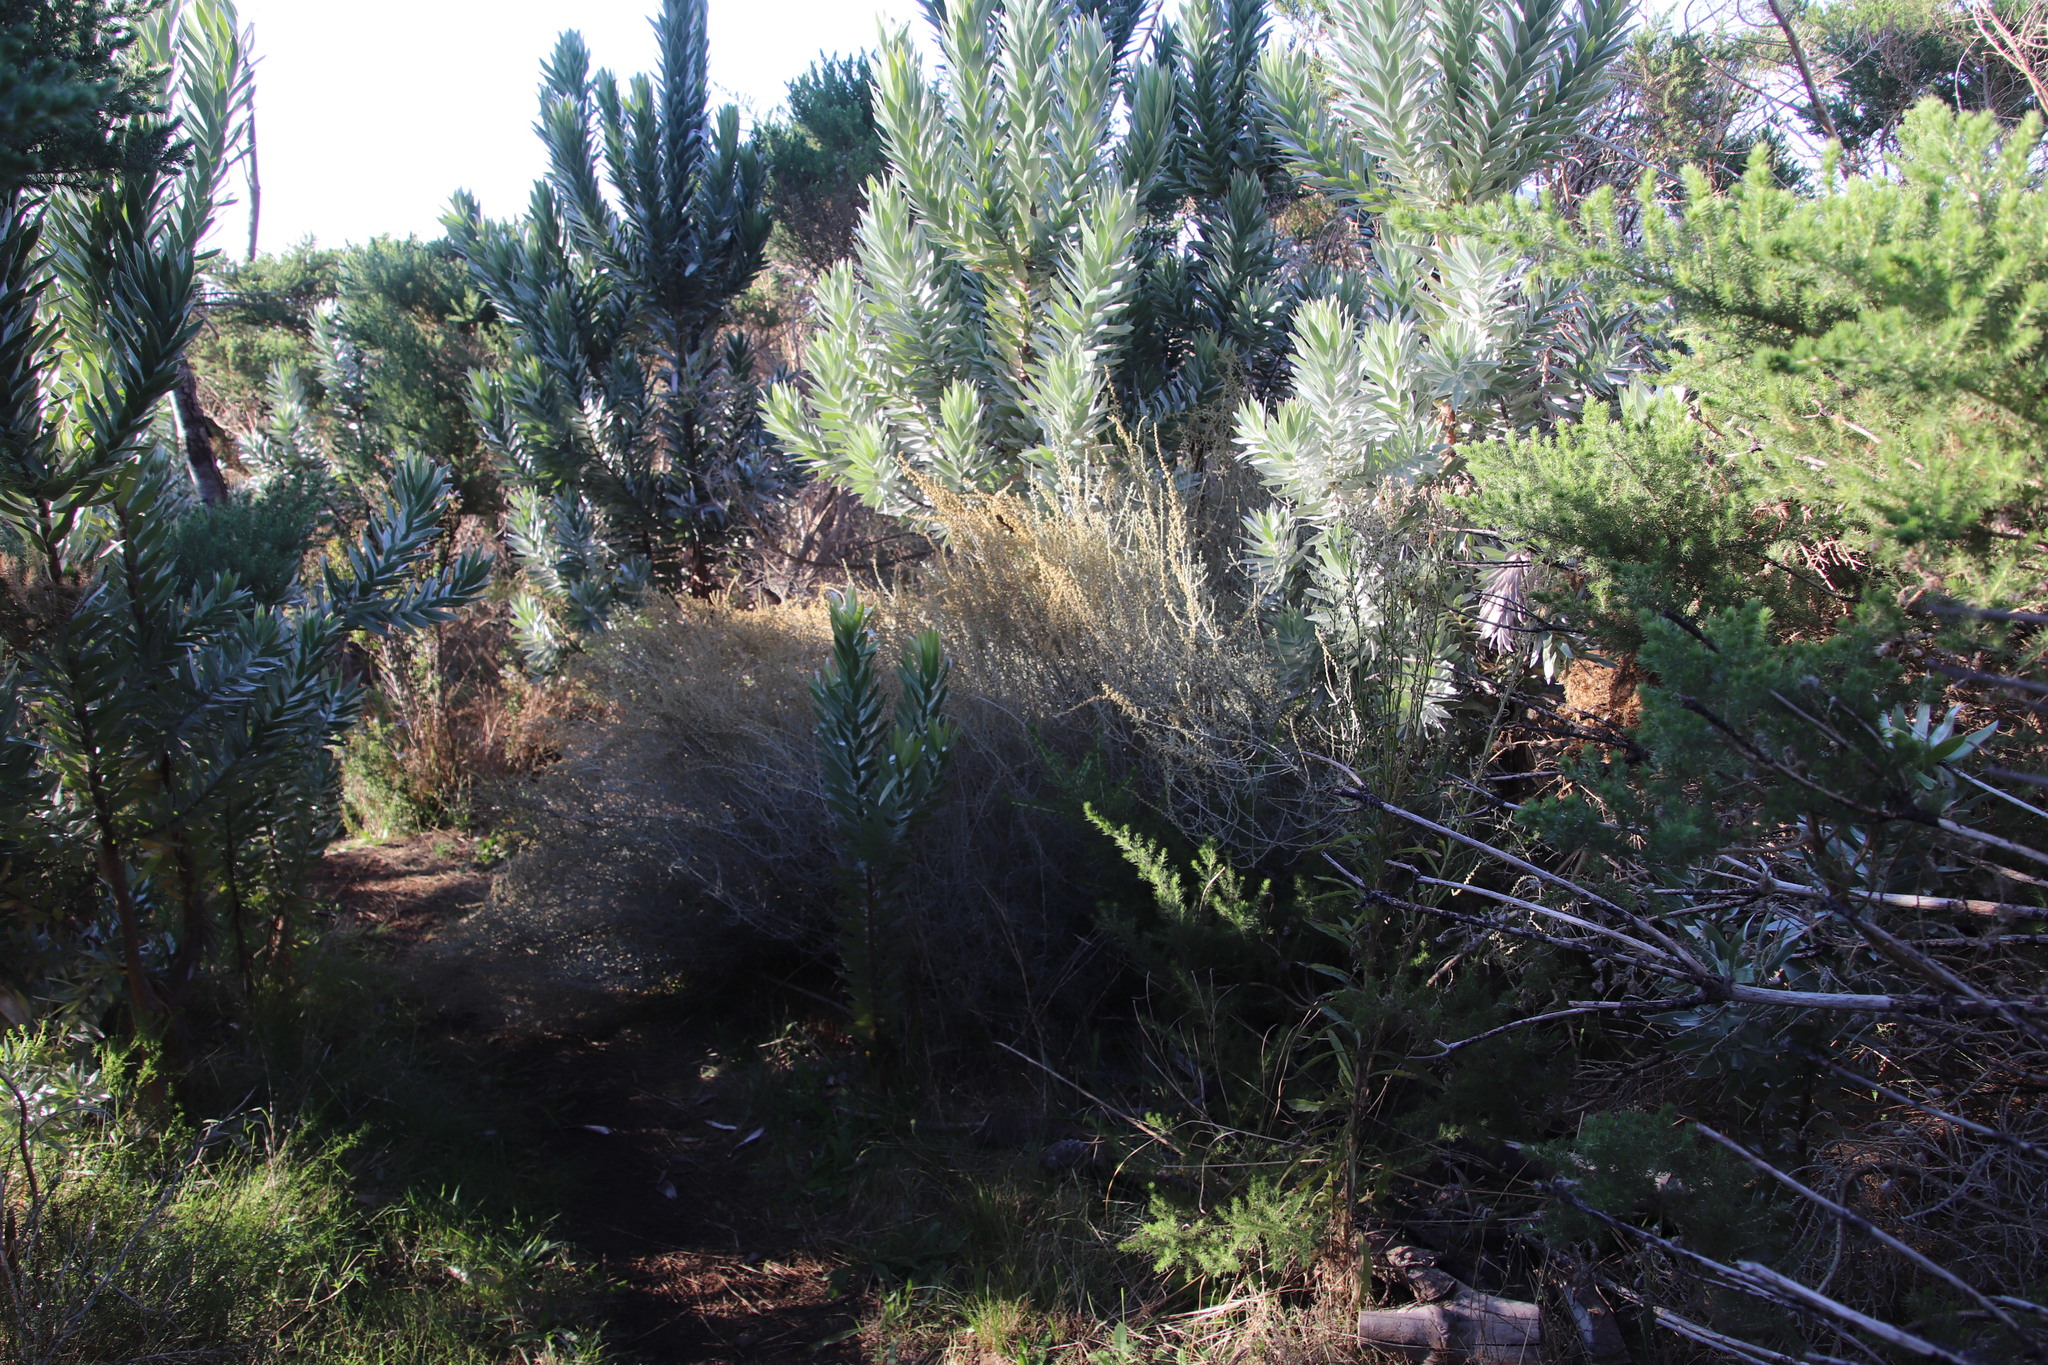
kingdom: Plantae
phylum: Tracheophyta
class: Magnoliopsida
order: Asterales
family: Asteraceae
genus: Seriphium
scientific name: Seriphium plumosum
